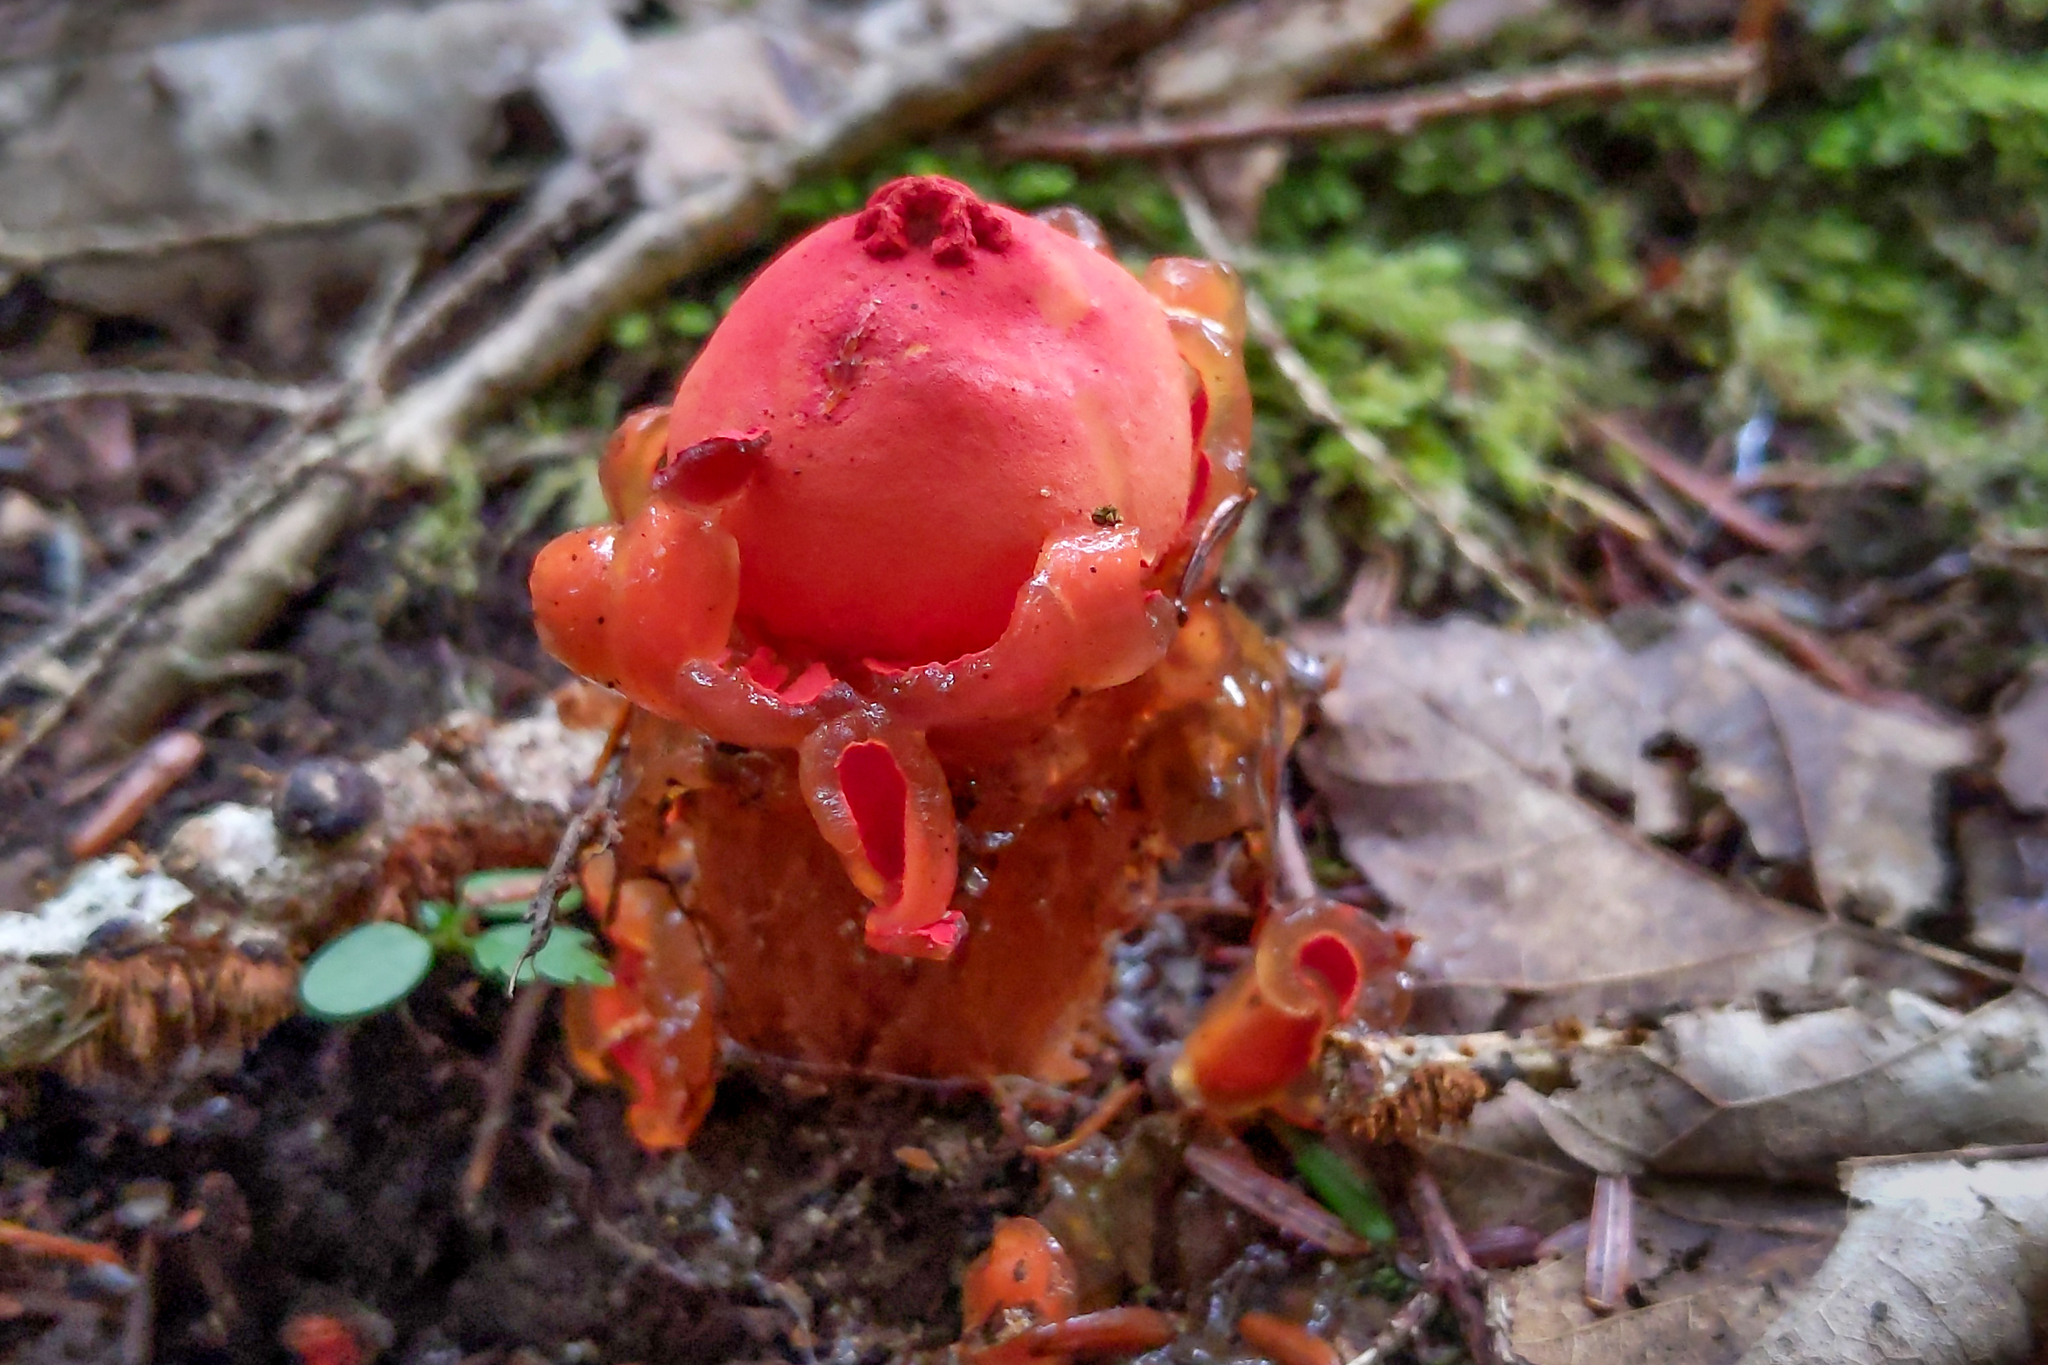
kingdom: Fungi
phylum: Basidiomycota
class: Agaricomycetes
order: Boletales
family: Calostomataceae
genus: Calostoma
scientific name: Calostoma cinnabarinum
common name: Stalked puffball-in-aspic
